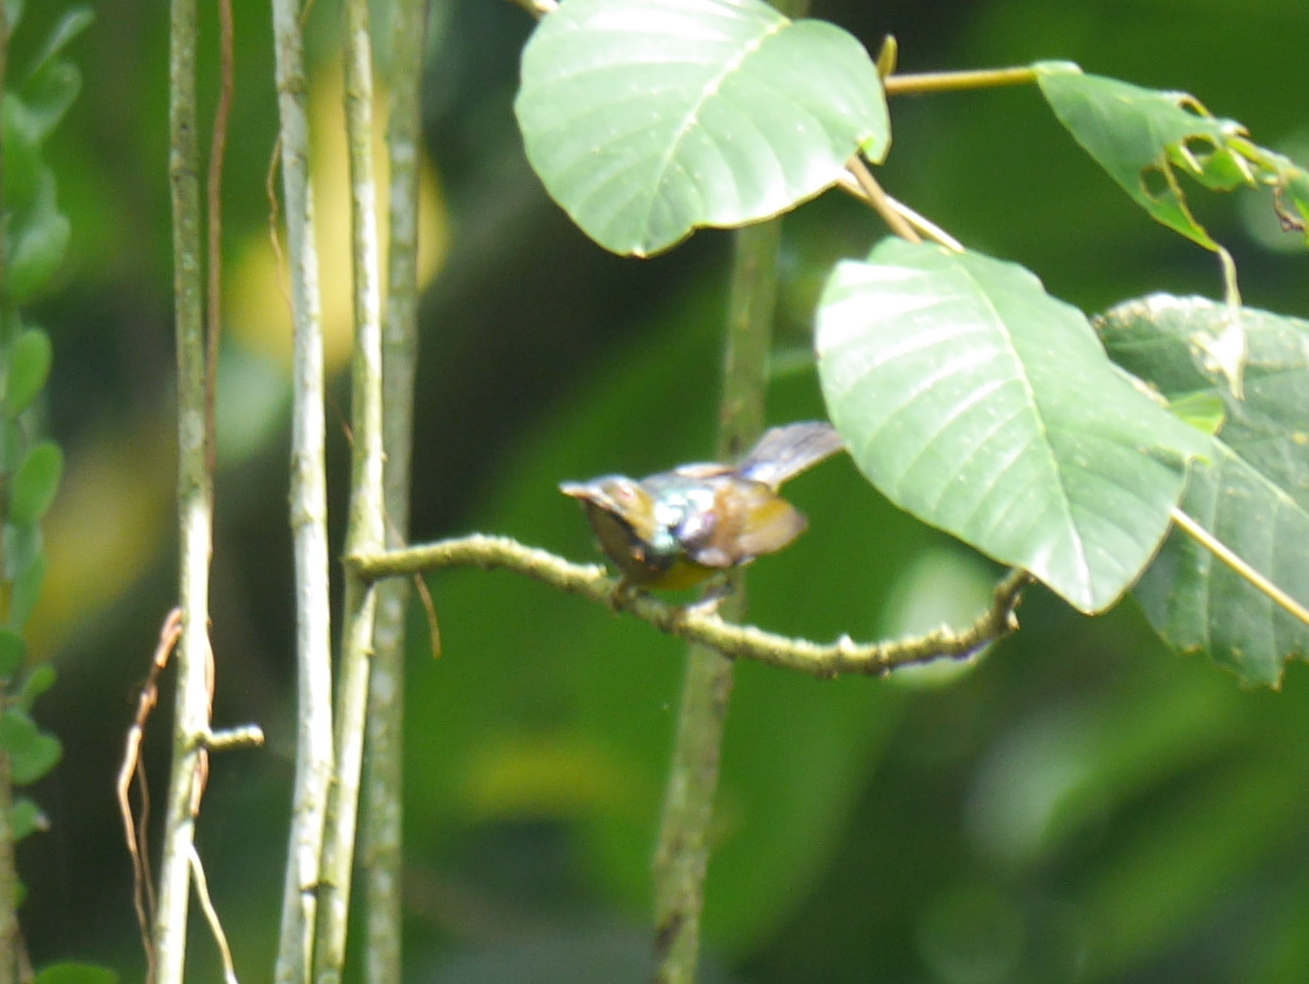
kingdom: Animalia
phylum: Chordata
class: Aves
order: Passeriformes
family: Nectariniidae
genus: Anthreptes
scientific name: Anthreptes malacensis
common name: Brown-throated sunbird
